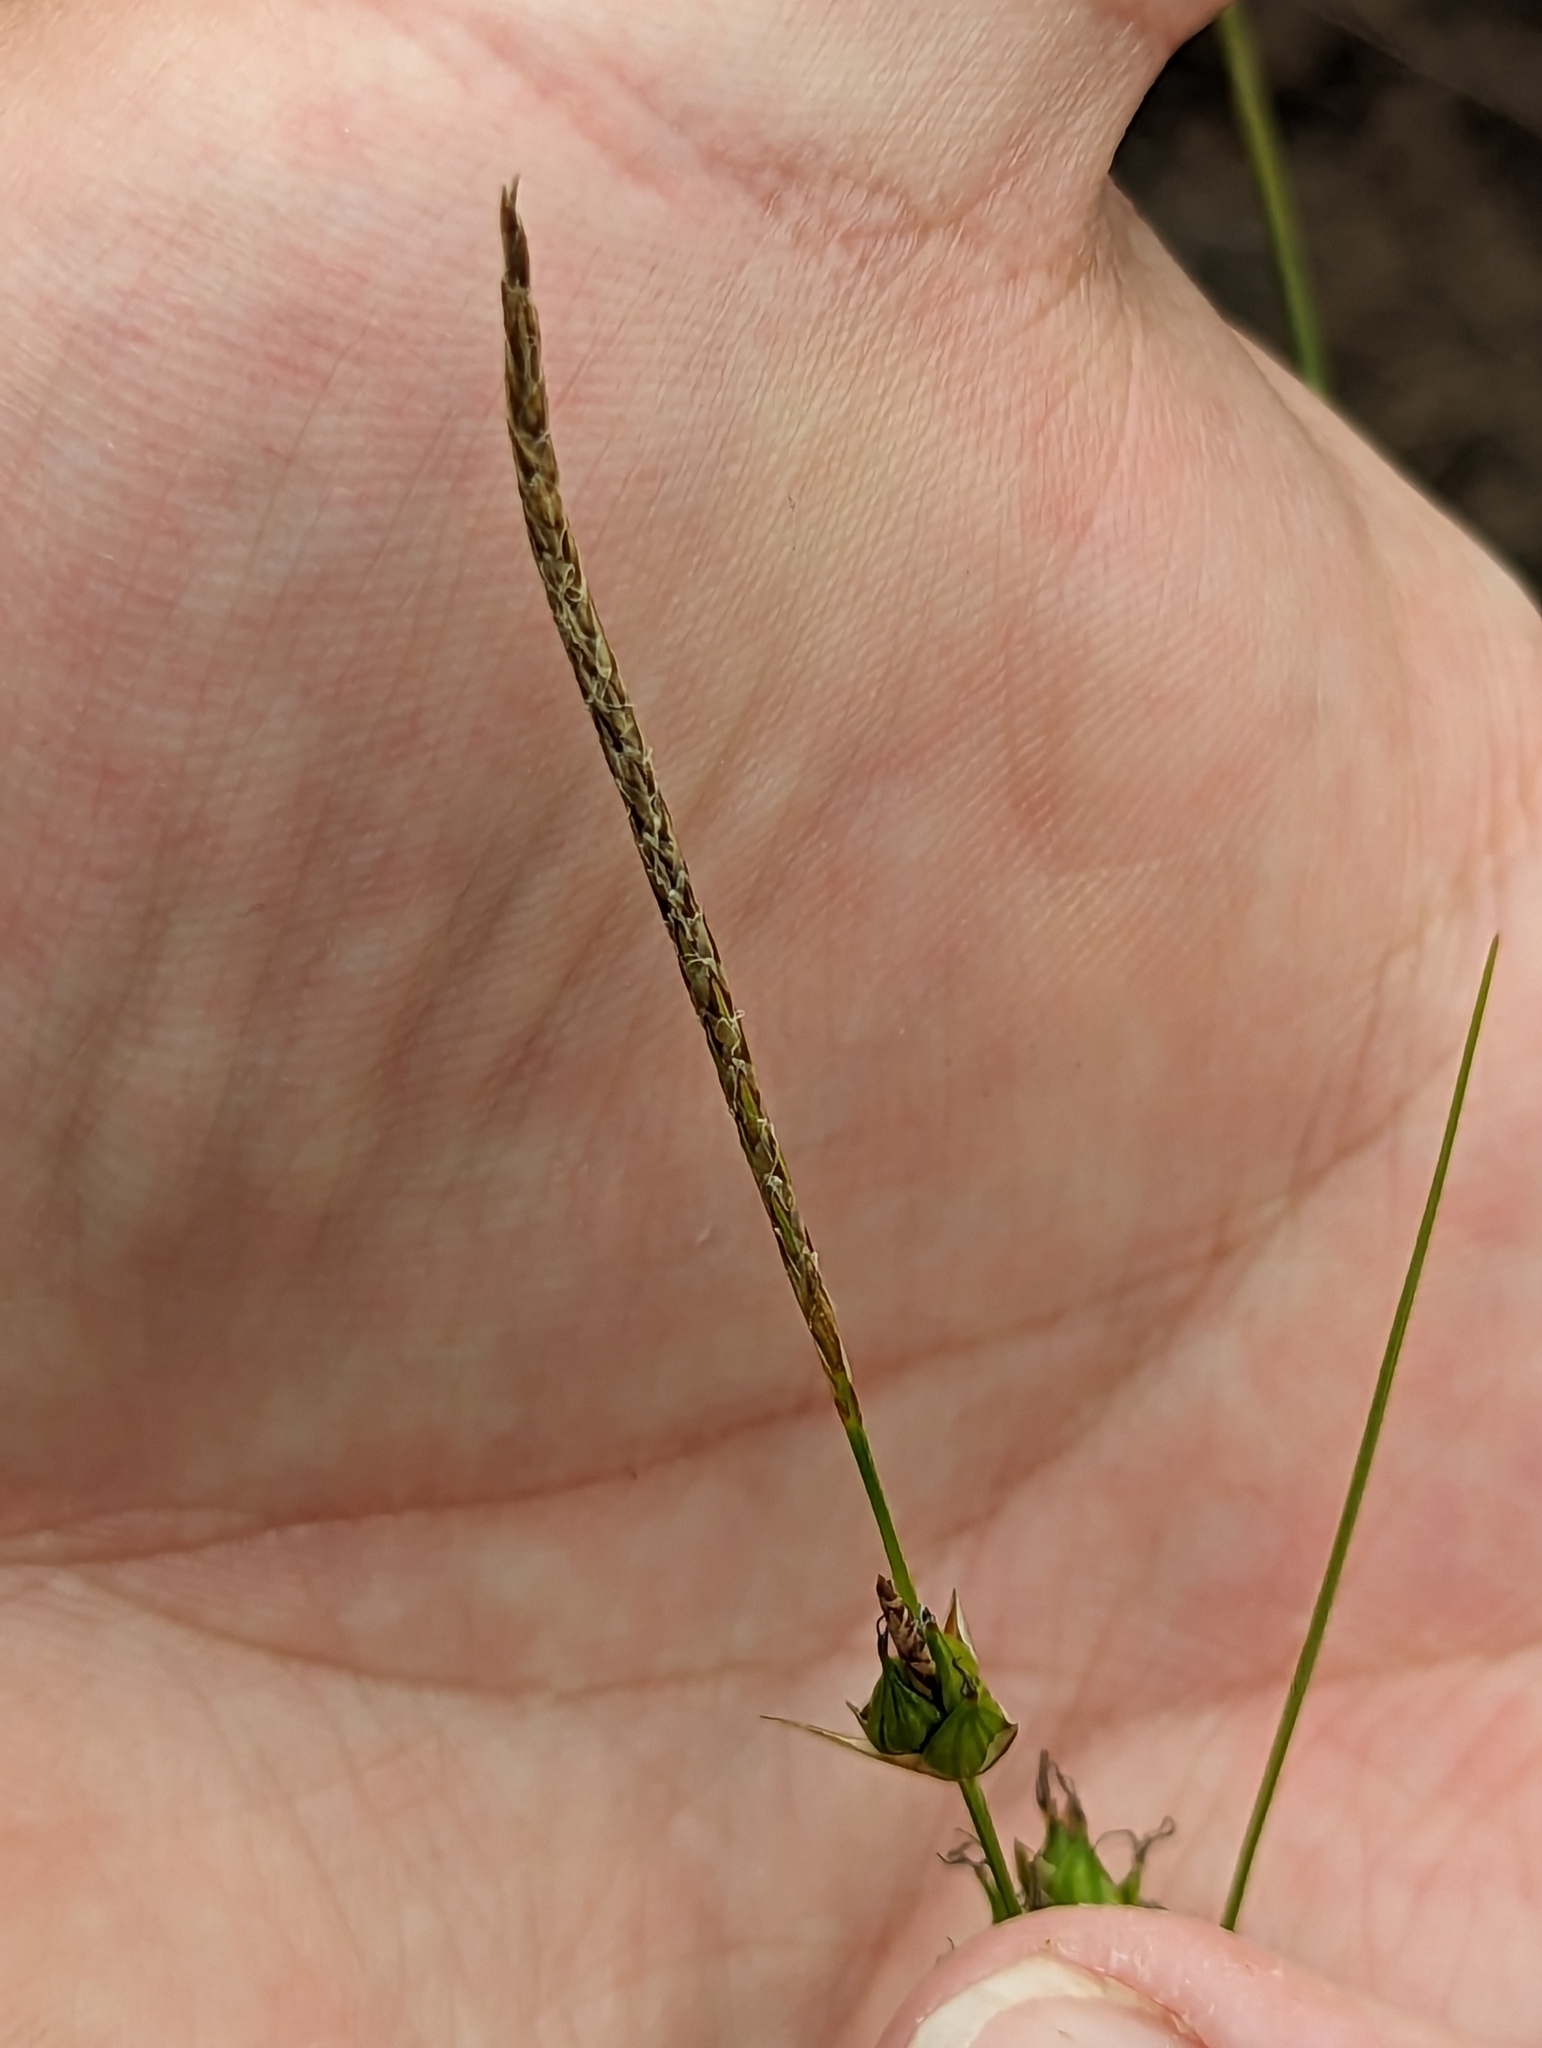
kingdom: Plantae
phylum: Tracheophyta
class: Liliopsida
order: Poales
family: Cyperaceae
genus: Carex
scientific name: Carex oligosperma
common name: Few-seed sedge
